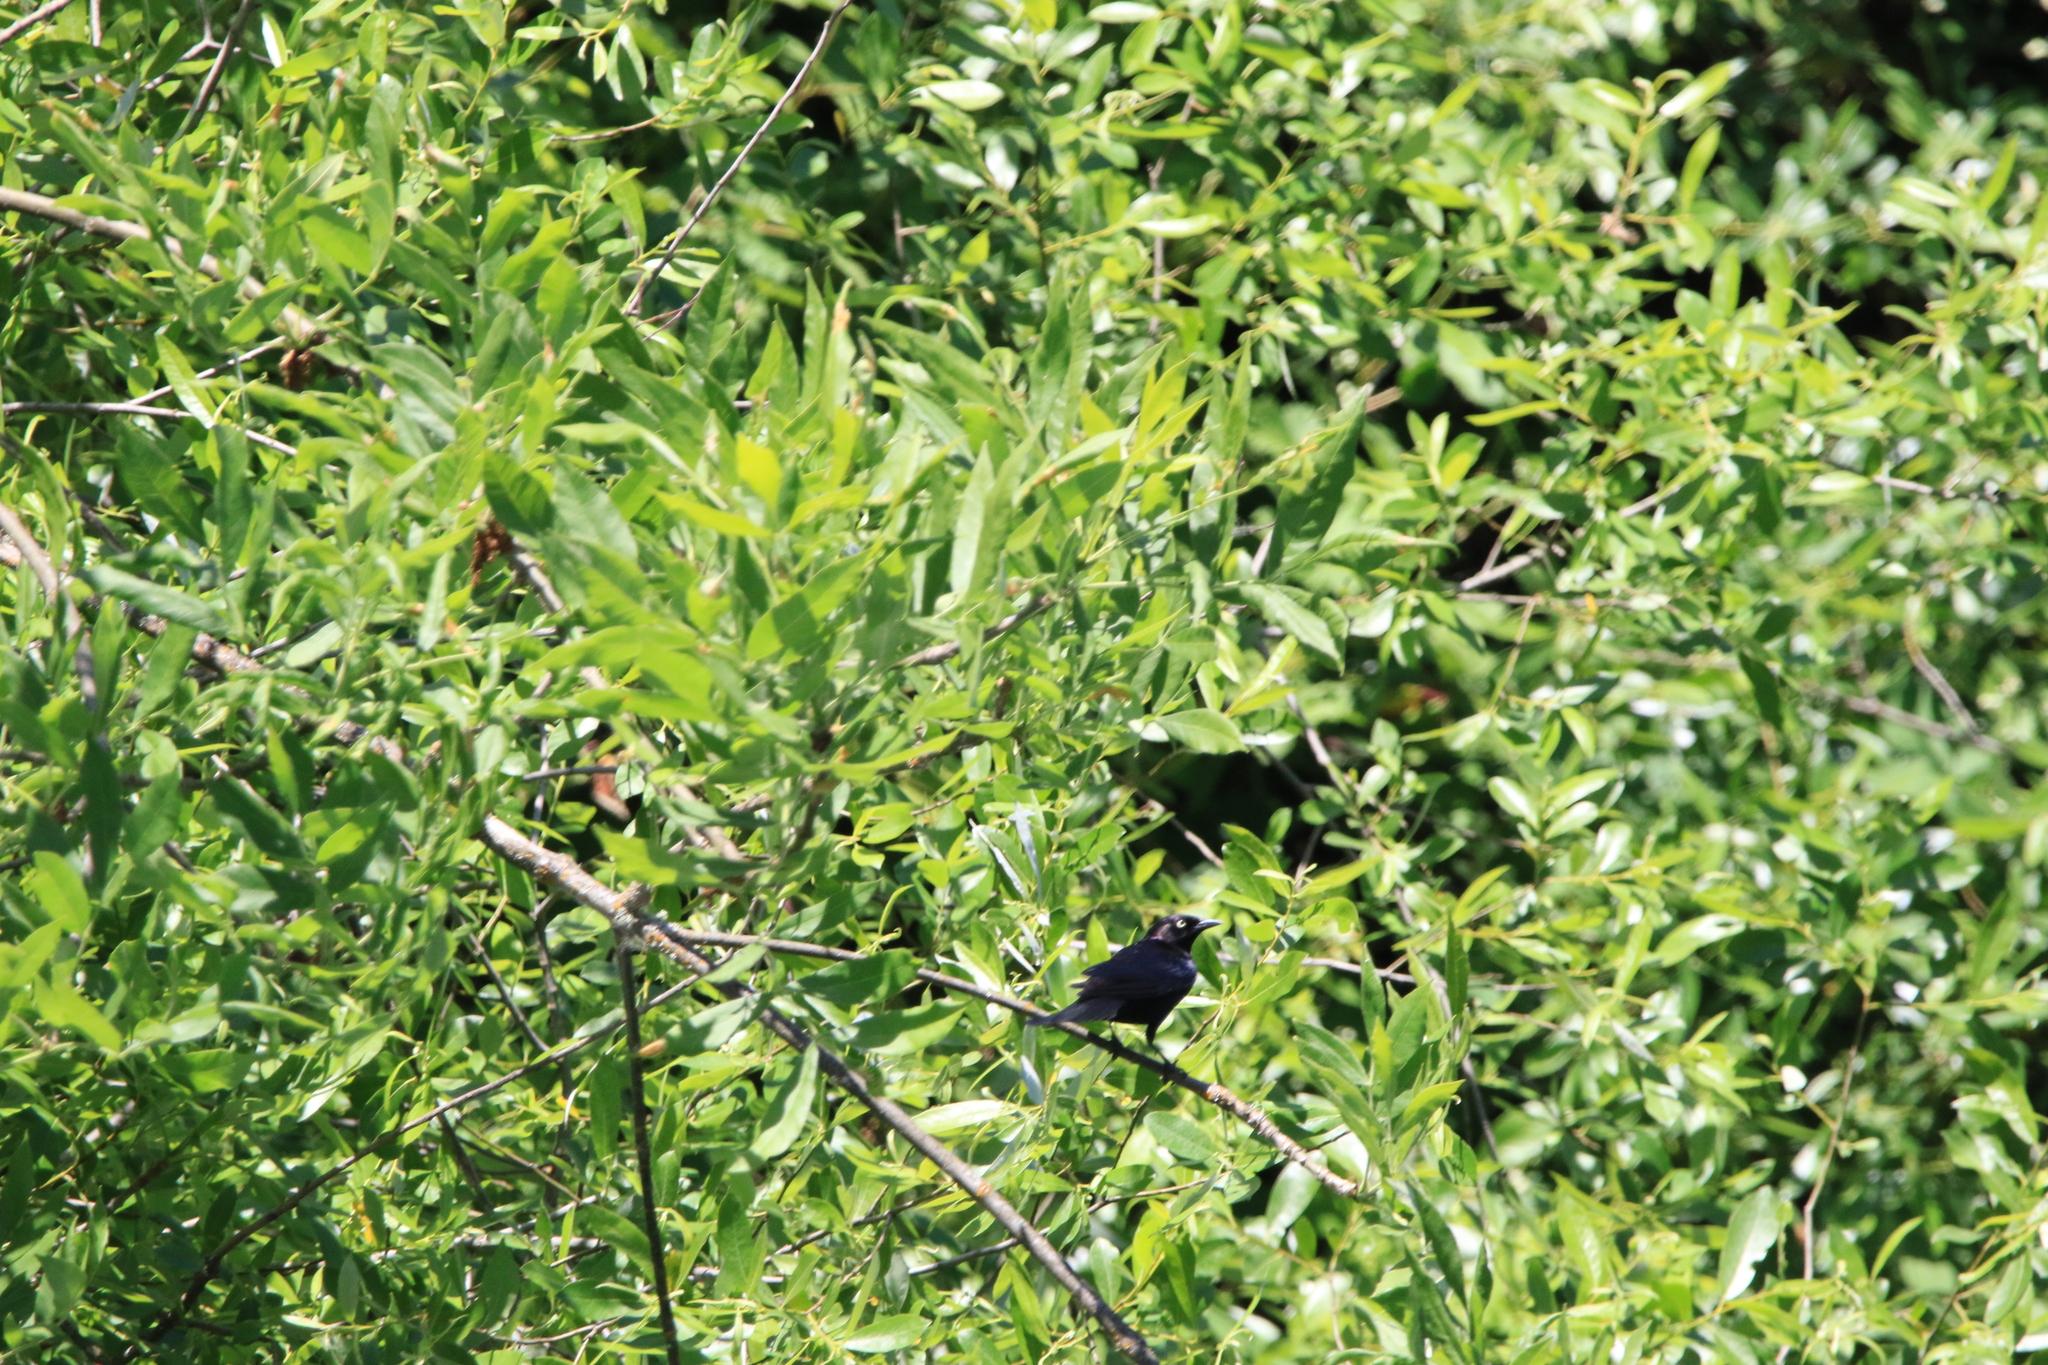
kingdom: Animalia
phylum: Chordata
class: Aves
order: Passeriformes
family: Icteridae
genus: Euphagus
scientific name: Euphagus cyanocephalus
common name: Brewer's blackbird
